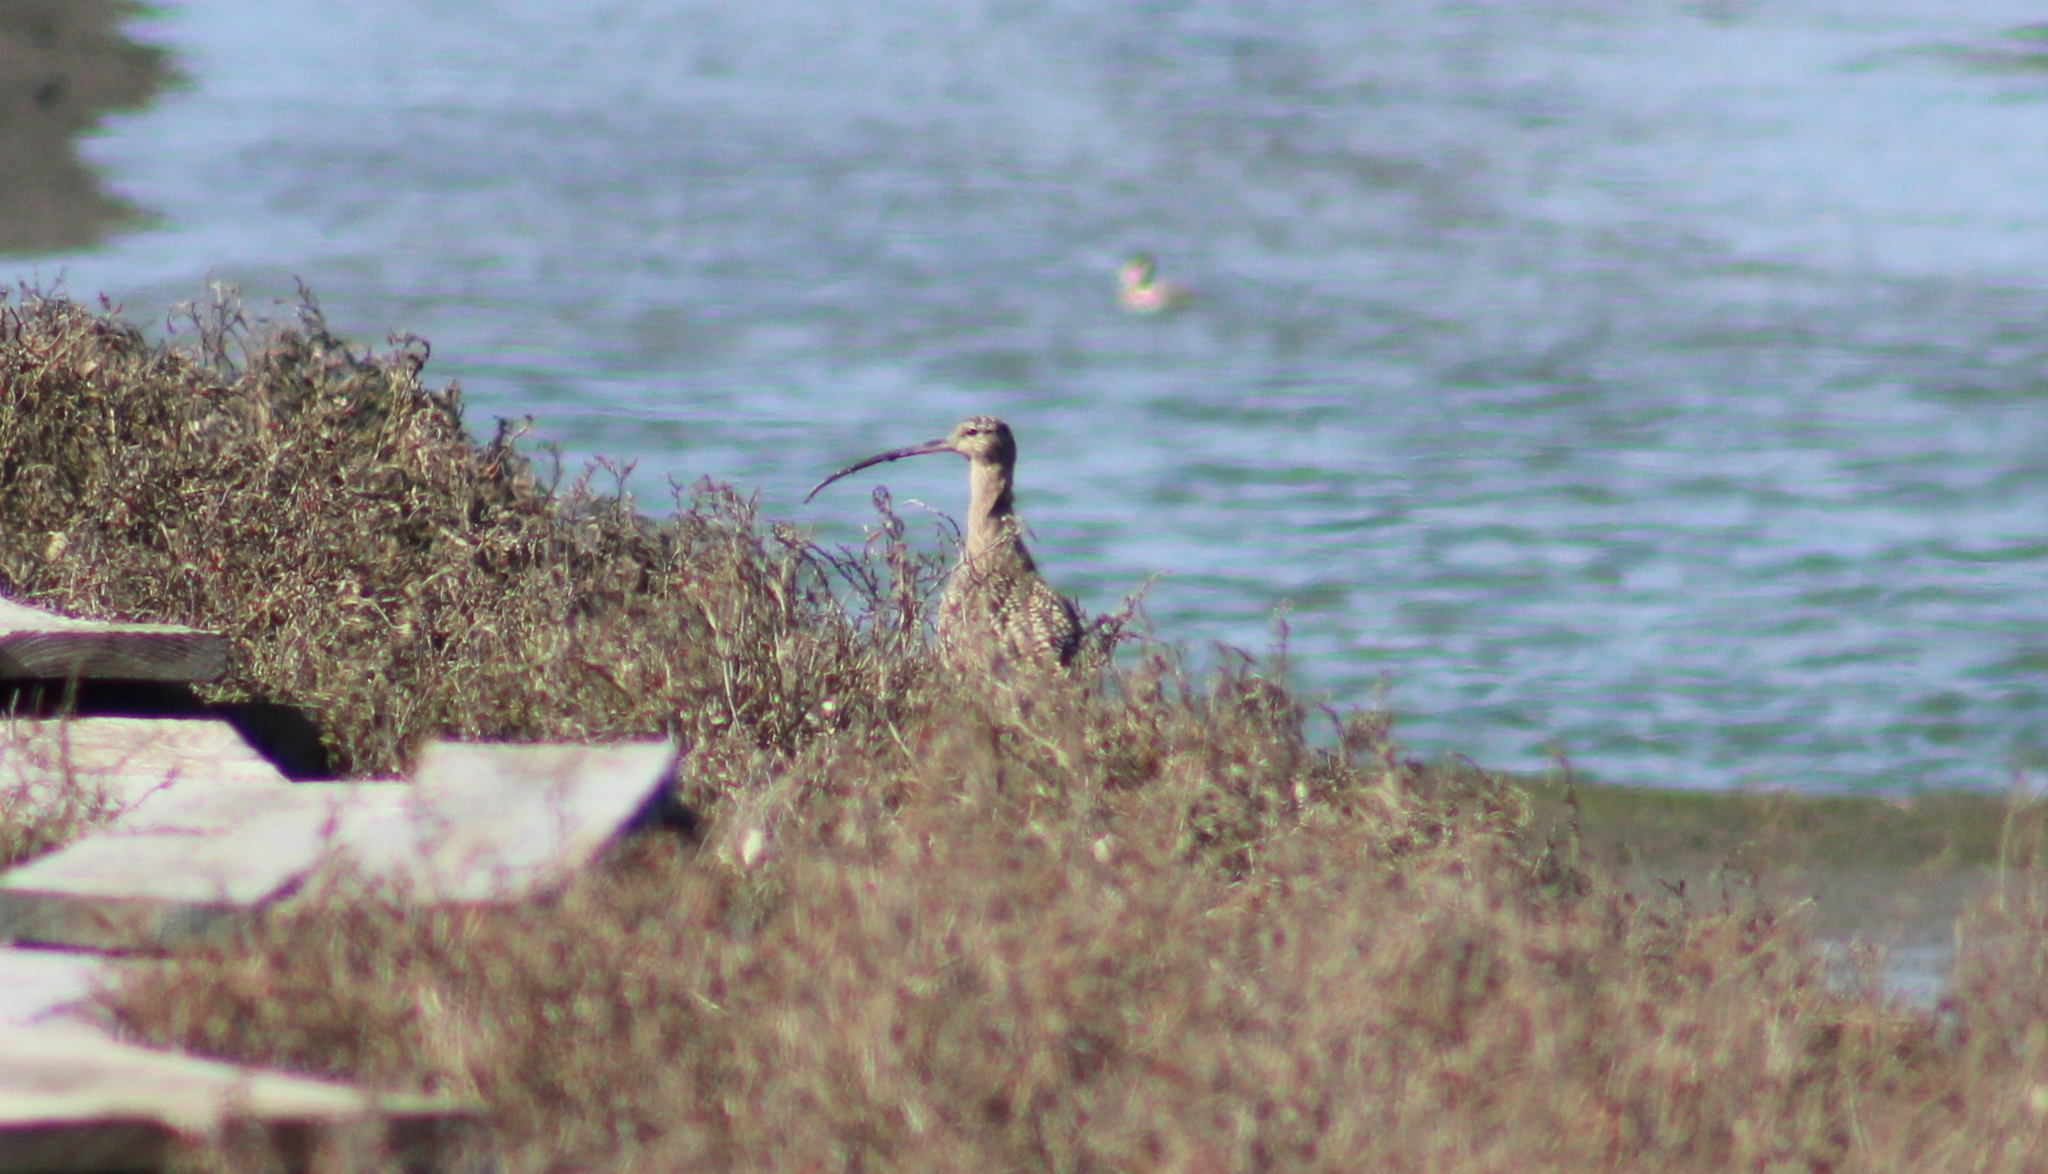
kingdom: Animalia
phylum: Chordata
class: Aves
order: Charadriiformes
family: Scolopacidae
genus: Numenius
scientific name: Numenius americanus
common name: Long-billed curlew
